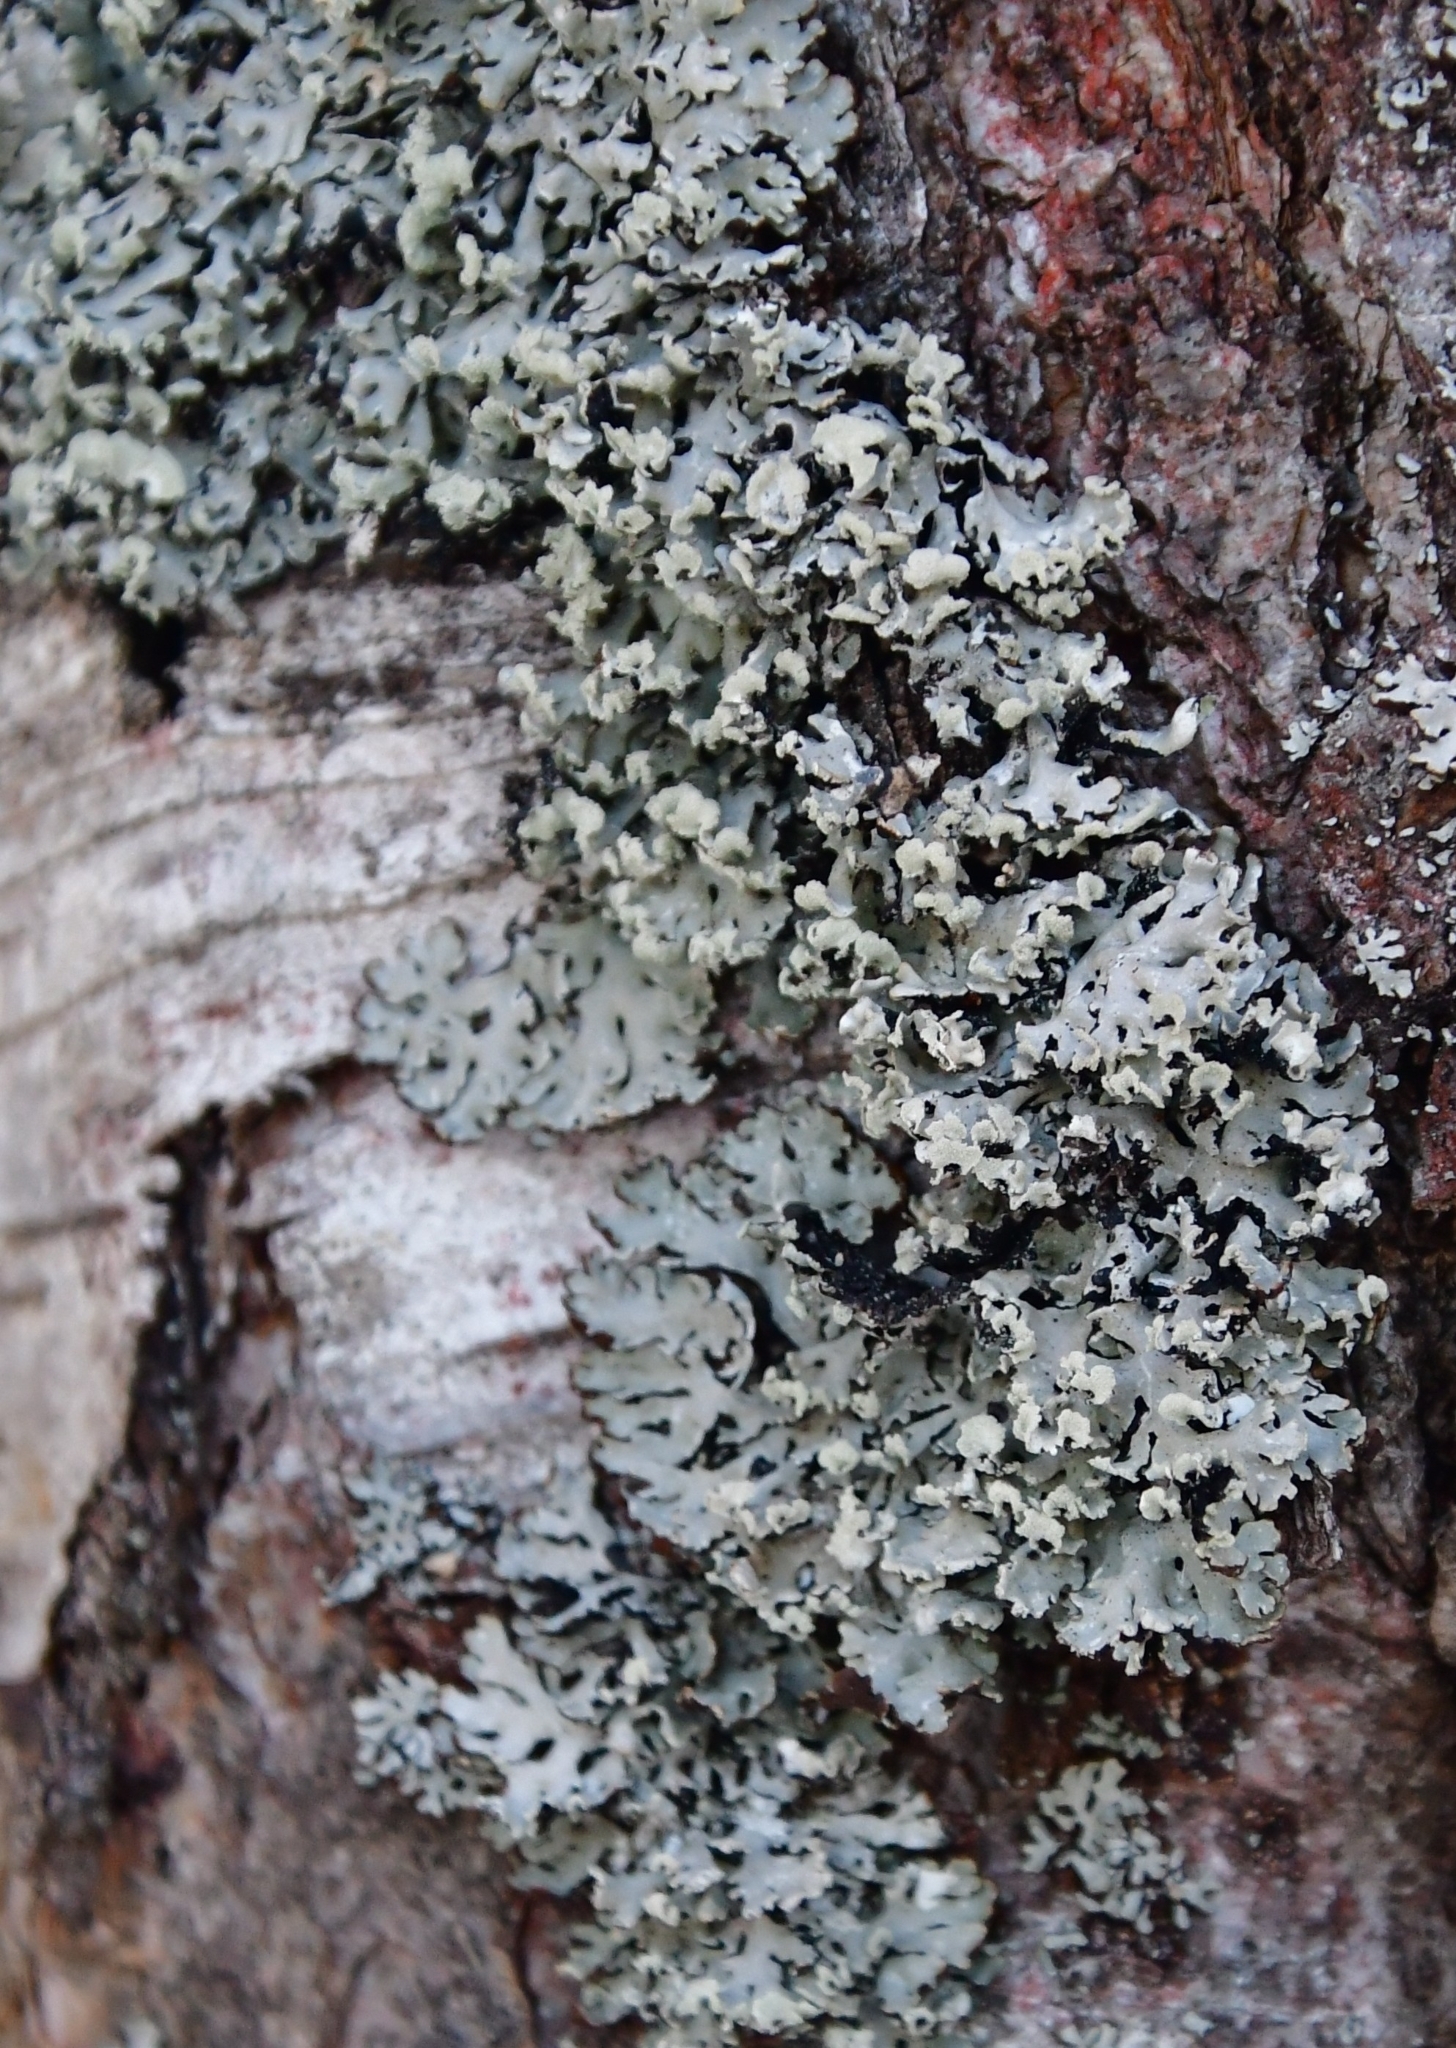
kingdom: Fungi
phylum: Ascomycota
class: Lecanoromycetes
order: Lecanorales
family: Parmeliaceae
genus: Hypogymnia
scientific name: Hypogymnia physodes
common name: Dark crottle
